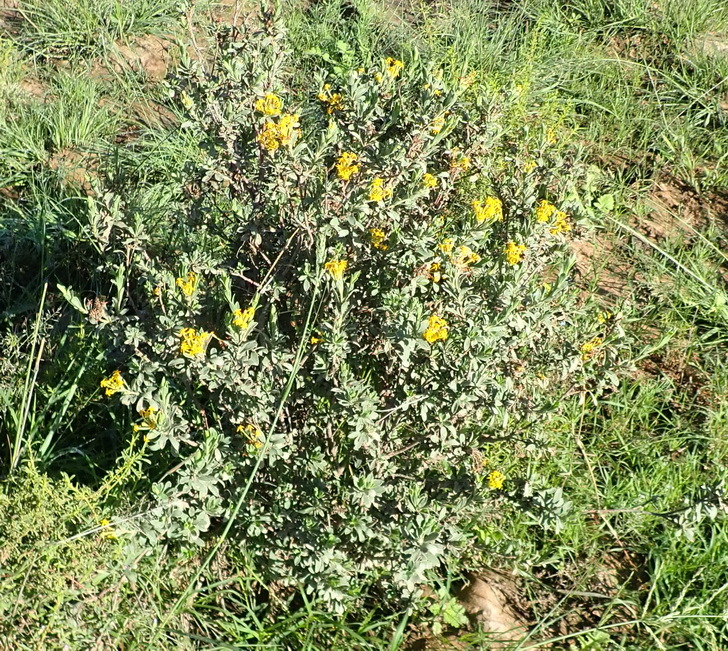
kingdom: Plantae
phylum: Tracheophyta
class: Magnoliopsida
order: Malvales
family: Thymelaeaceae
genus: Gnidia
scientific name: Gnidia cuneata
